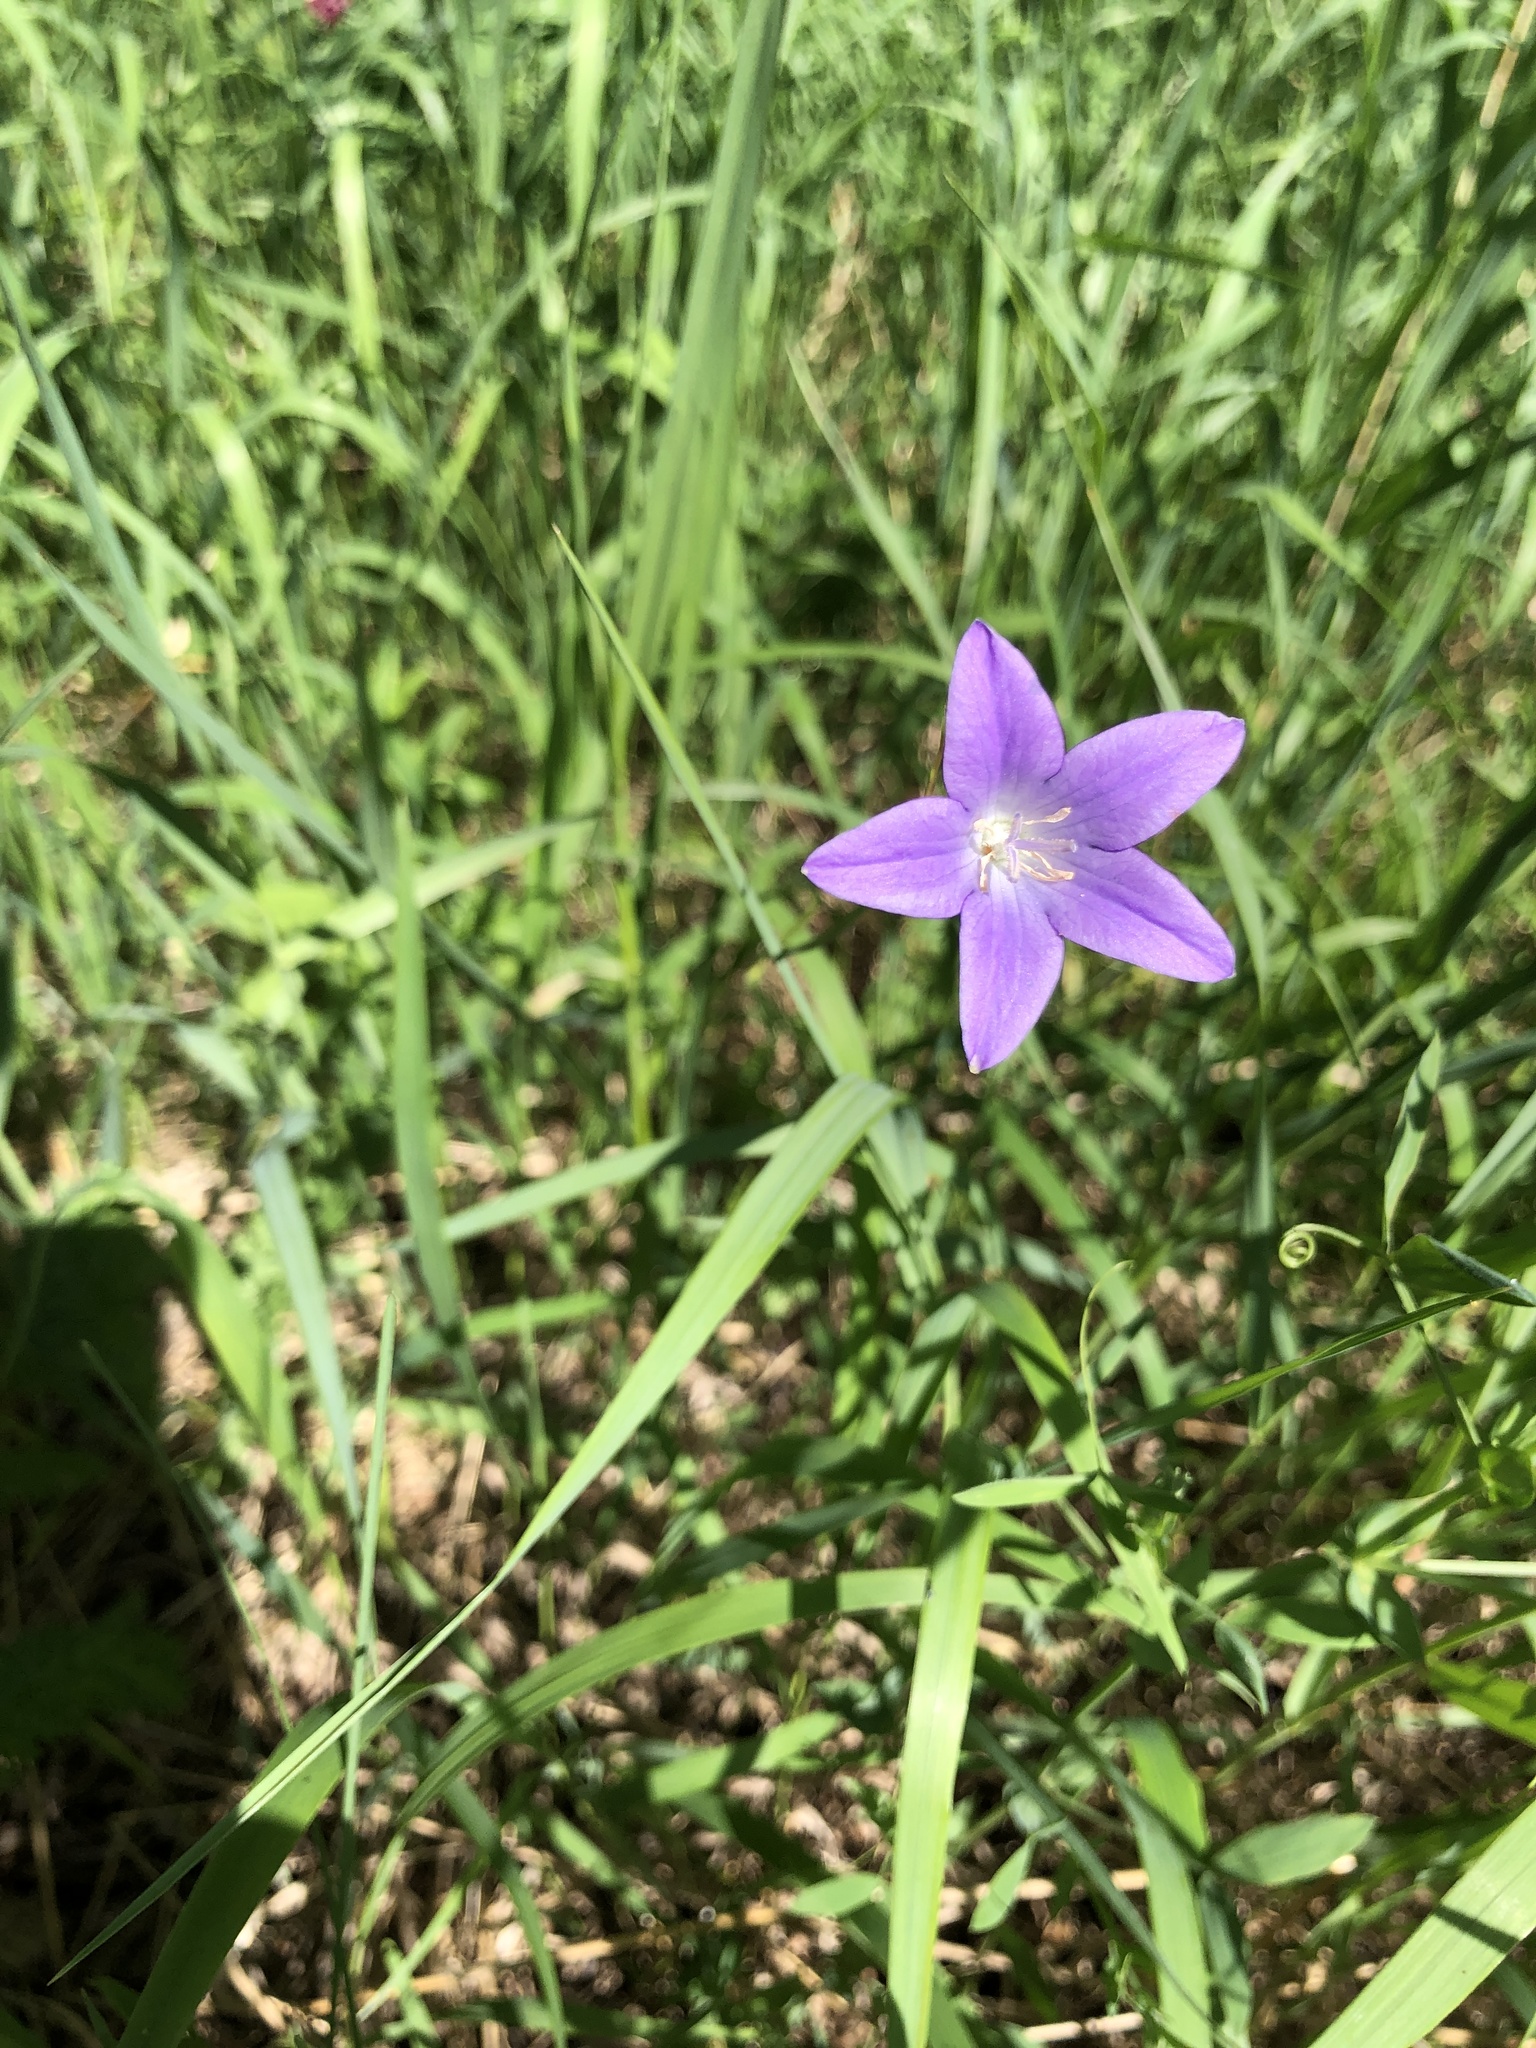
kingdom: Plantae
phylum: Tracheophyta
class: Magnoliopsida
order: Asterales
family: Campanulaceae
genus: Campanula
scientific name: Campanula patula
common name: Spreading bellflower
